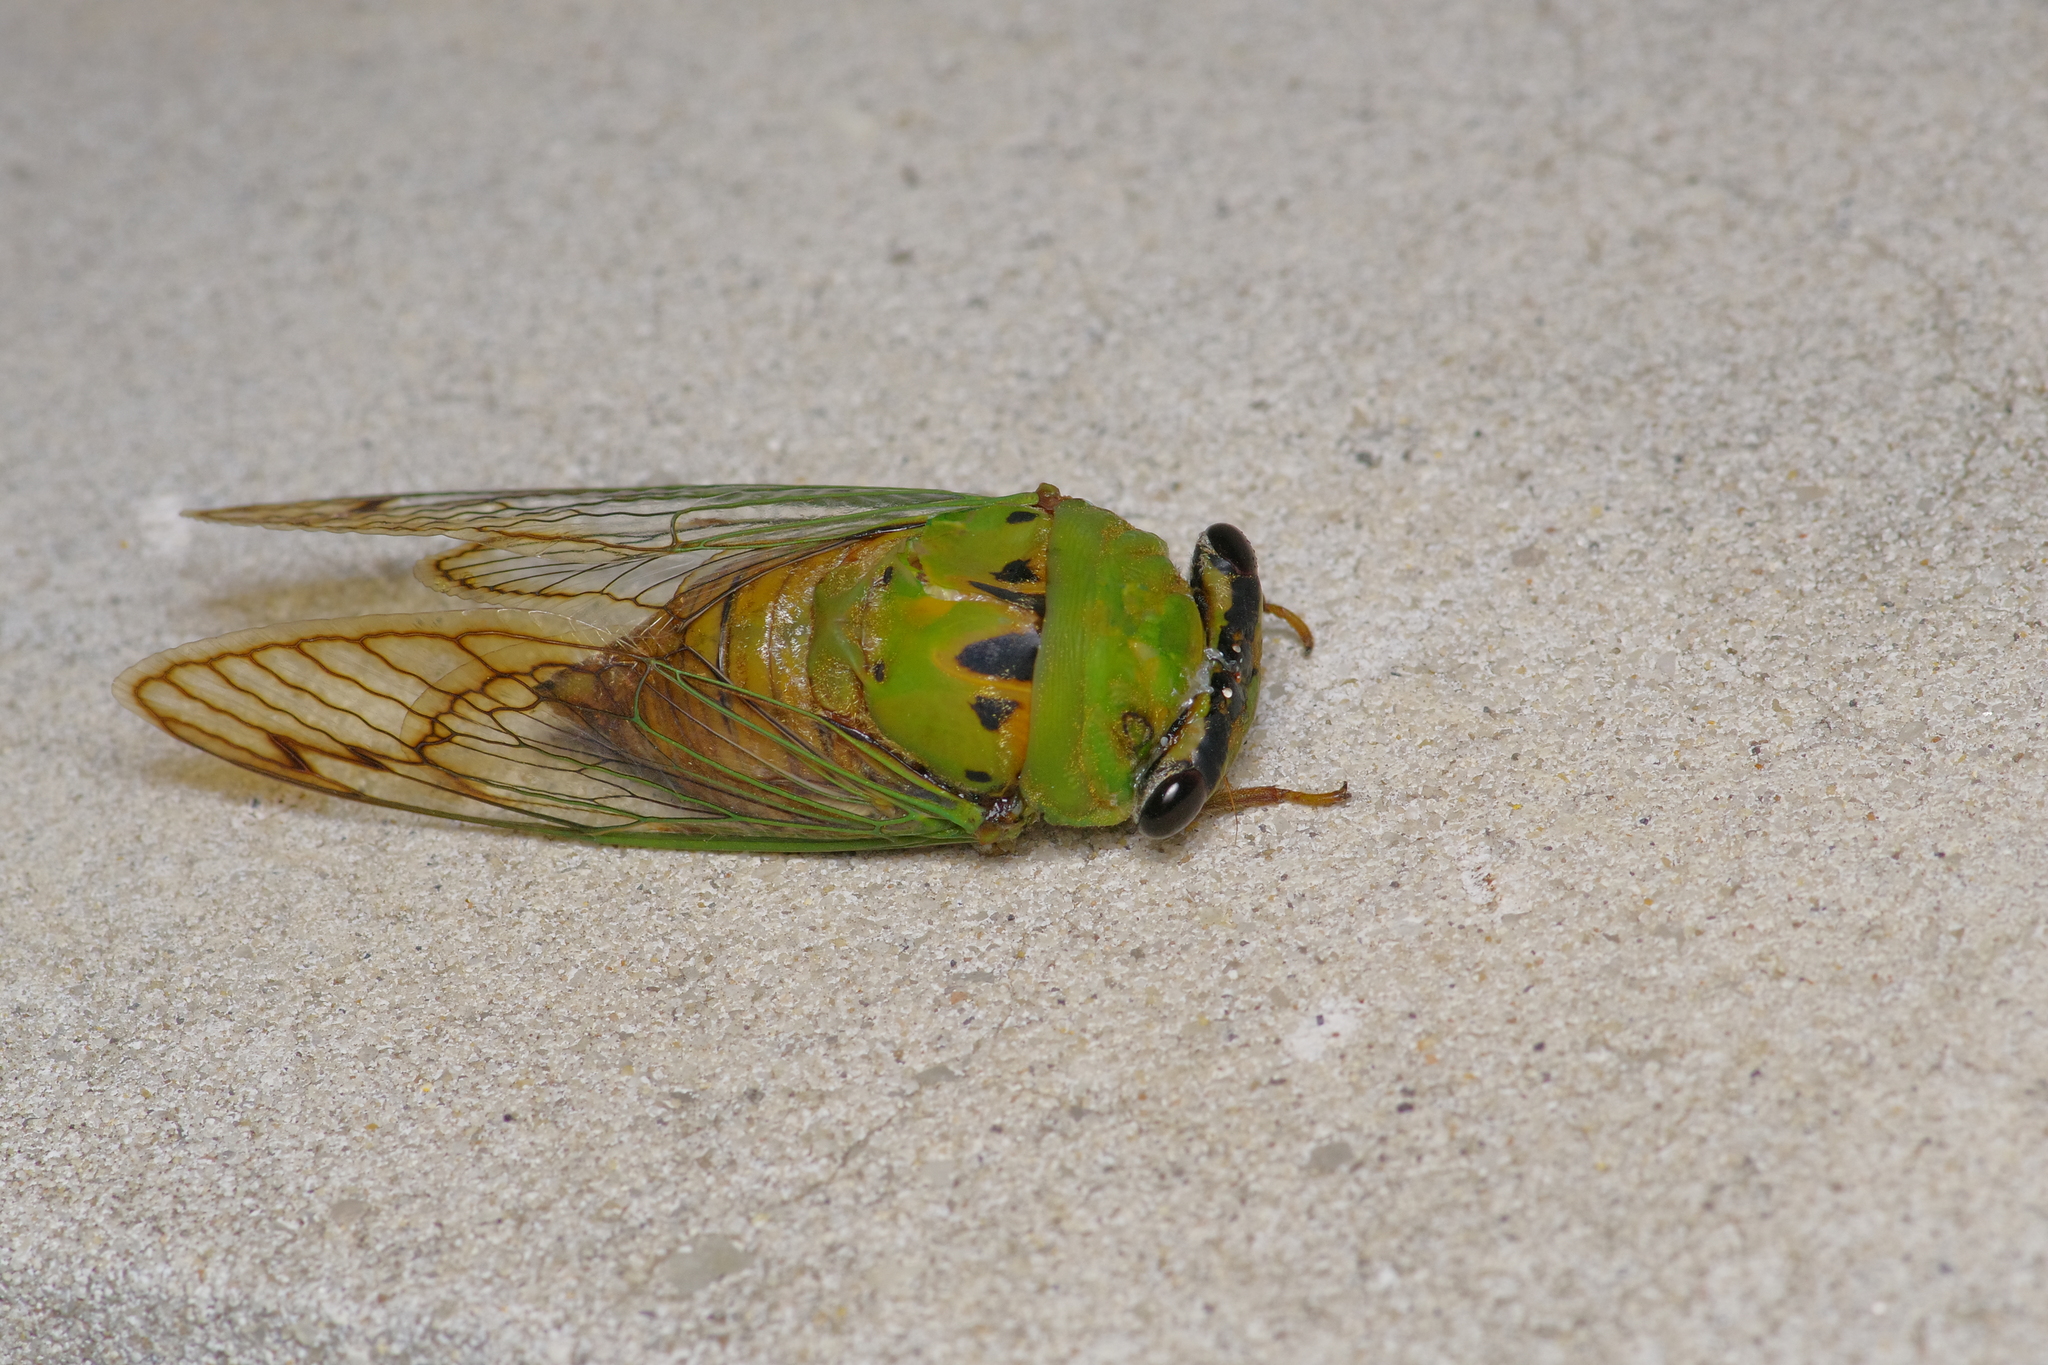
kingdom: Animalia
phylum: Arthropoda
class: Insecta
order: Hemiptera
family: Cicadidae
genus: Neotibicen
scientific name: Neotibicen superbus
